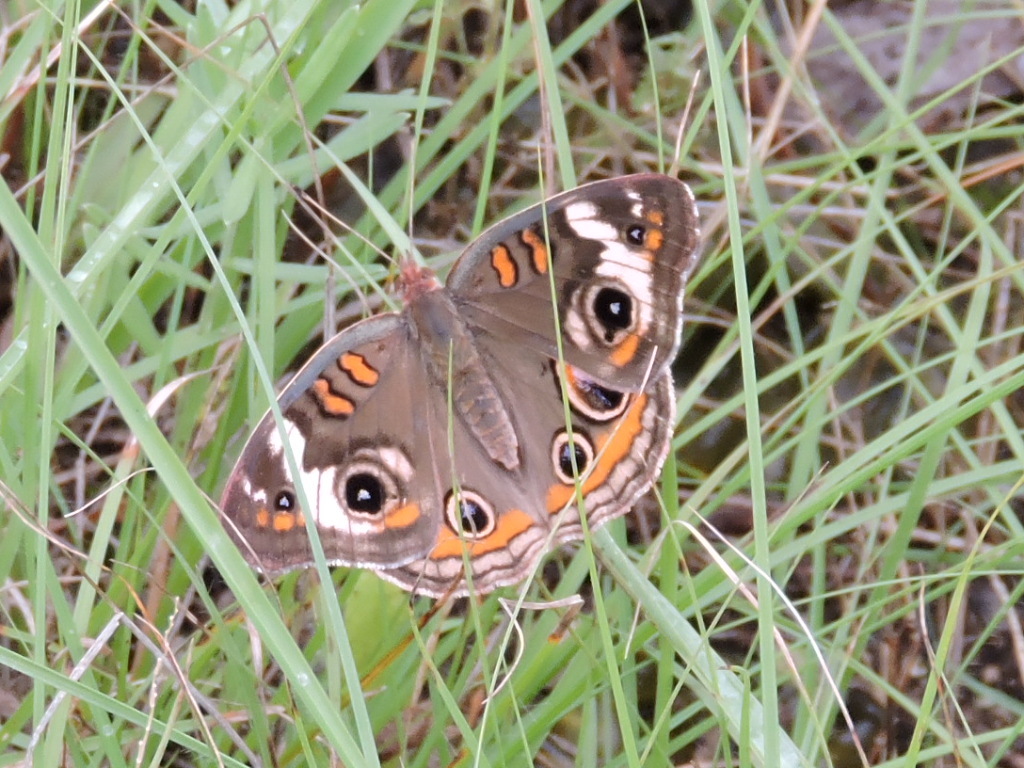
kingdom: Animalia
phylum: Arthropoda
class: Insecta
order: Lepidoptera
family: Nymphalidae
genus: Junonia
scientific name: Junonia coenia
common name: Common buckeye
